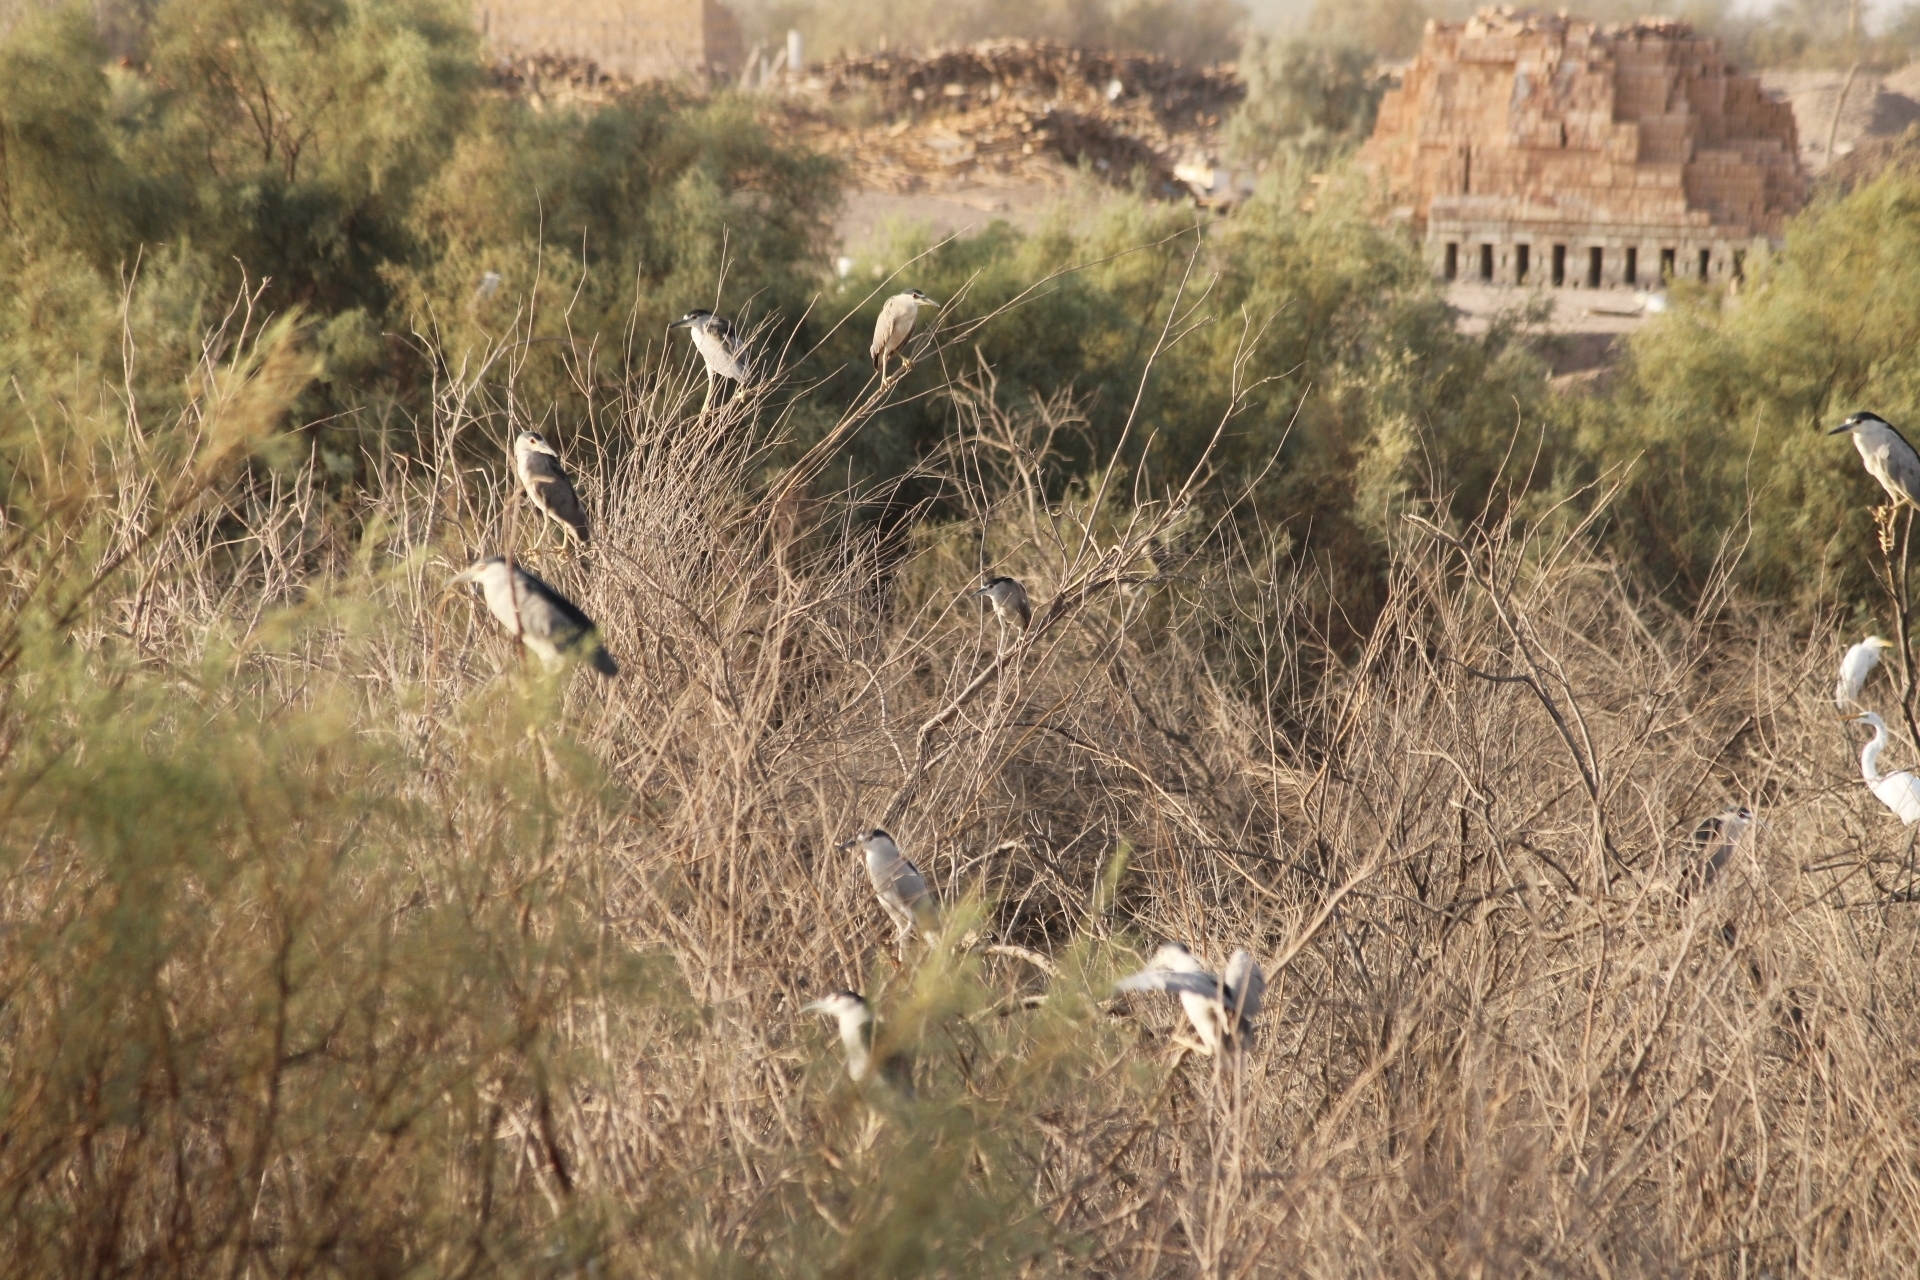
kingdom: Animalia
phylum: Chordata
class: Aves
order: Pelecaniformes
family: Ardeidae
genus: Nycticorax
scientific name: Nycticorax nycticorax
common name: Black-crowned night heron
